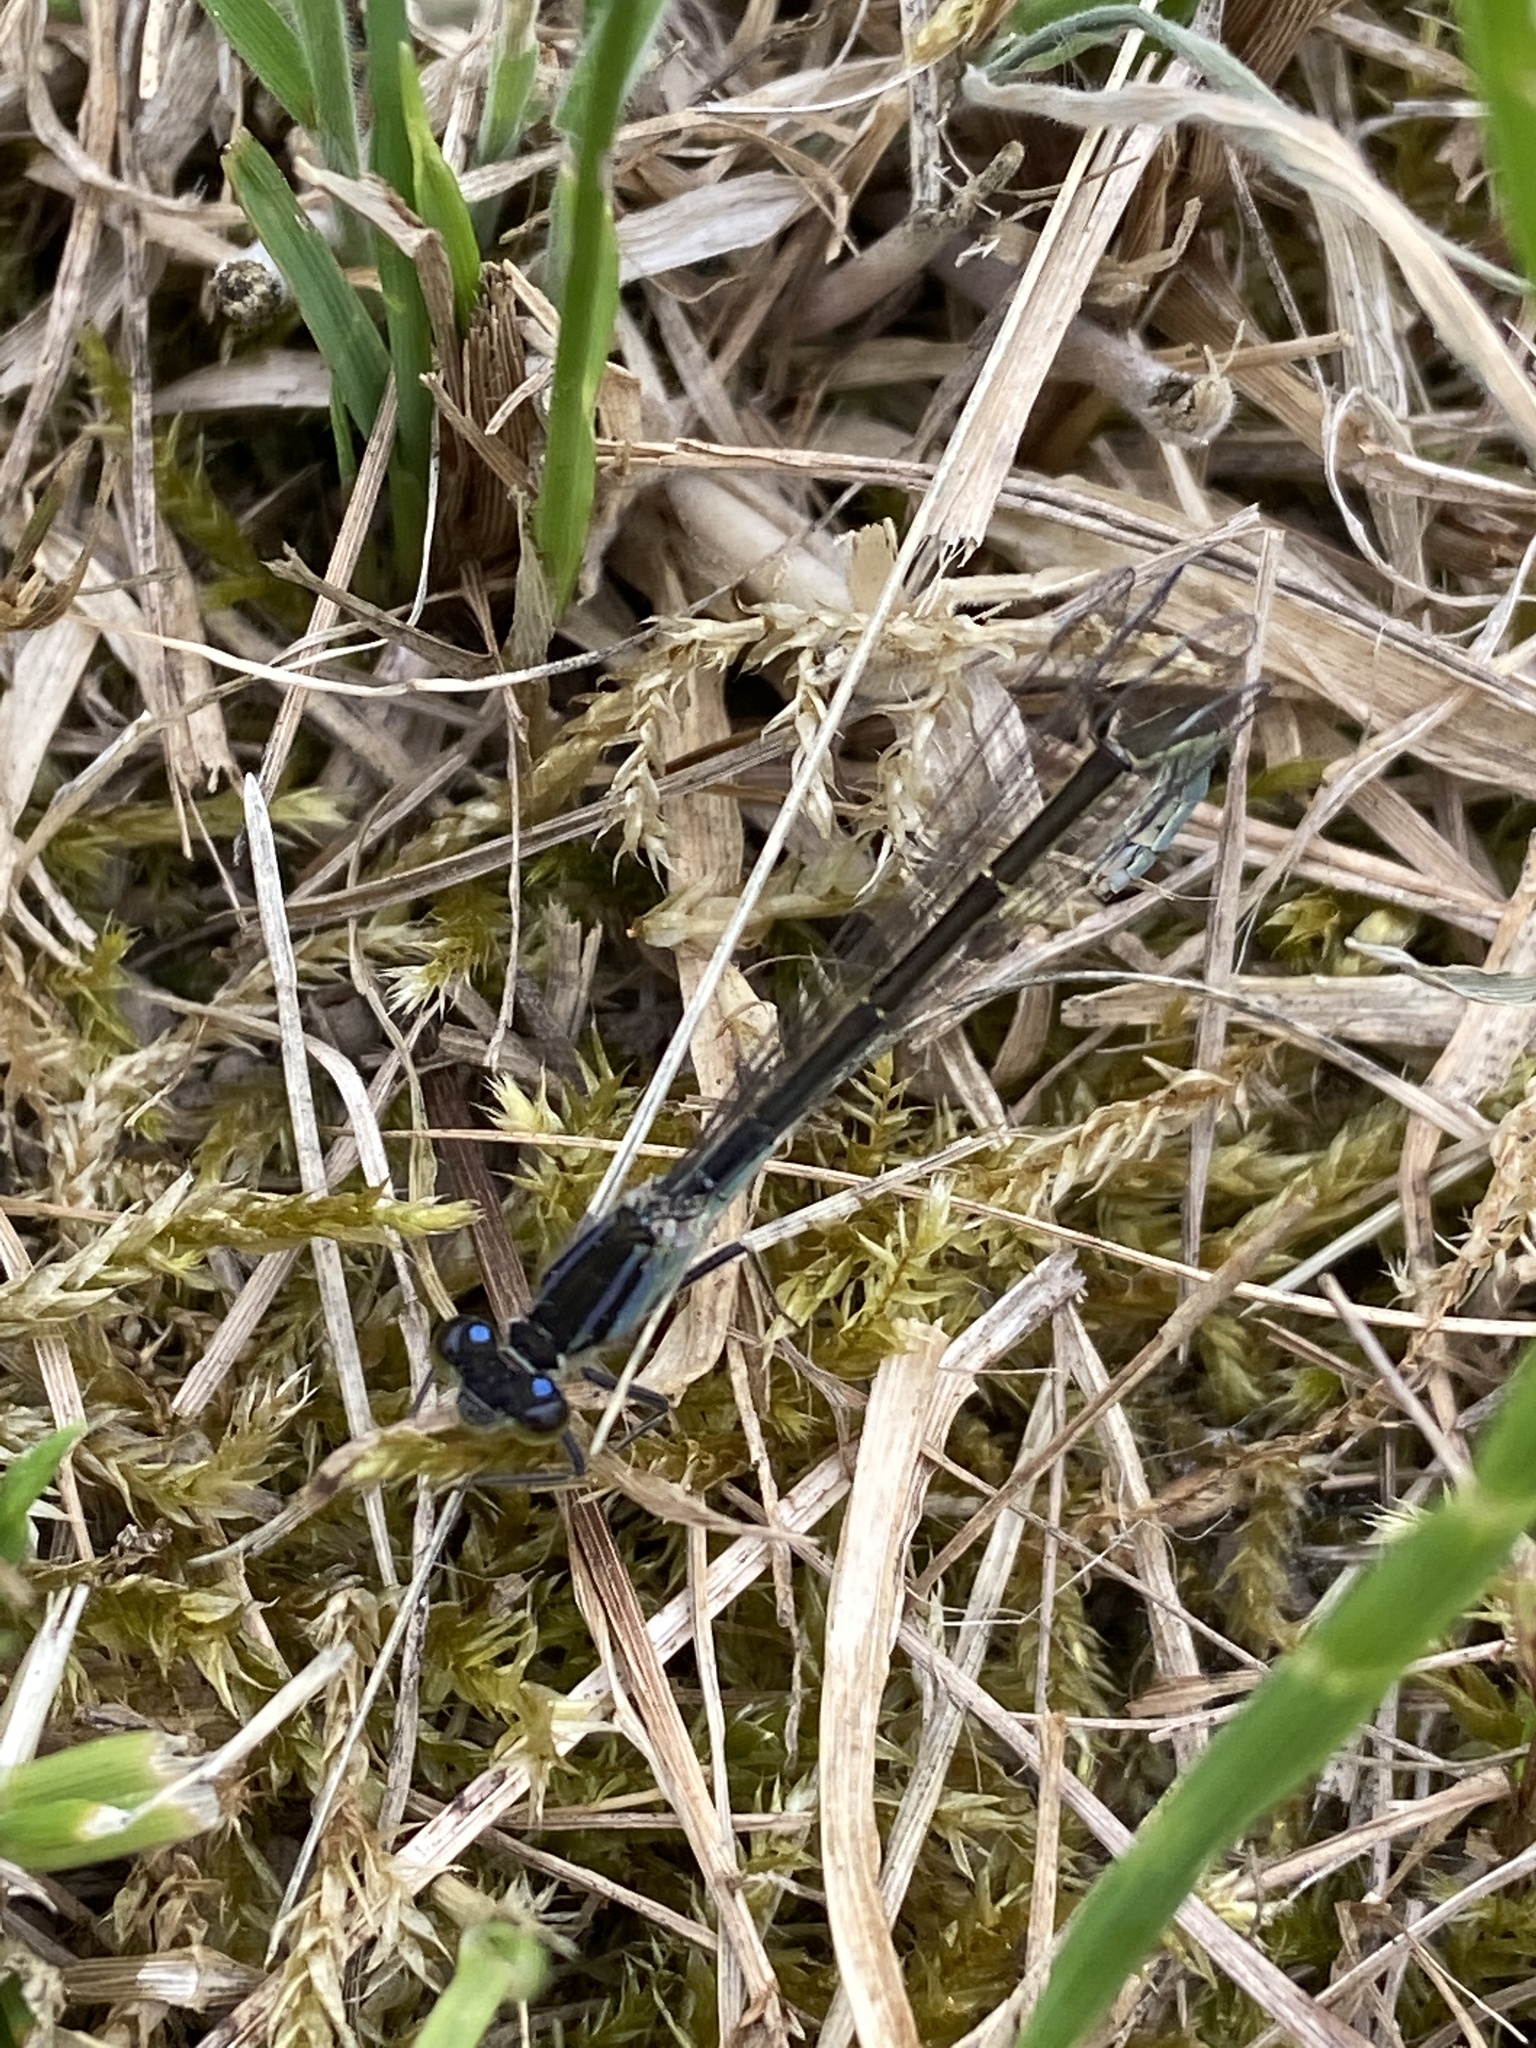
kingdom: Animalia
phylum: Arthropoda
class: Insecta
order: Odonata
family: Coenagrionidae
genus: Ischnura
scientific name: Ischnura elegans
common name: Blue-tailed damselfly
